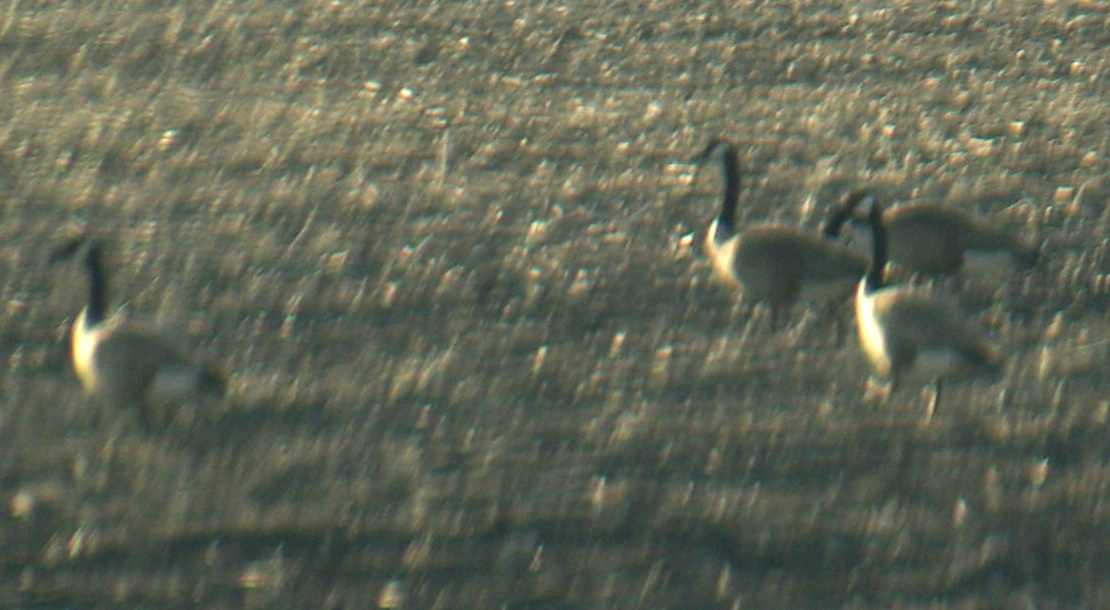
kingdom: Animalia
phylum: Chordata
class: Aves
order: Anseriformes
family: Anatidae
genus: Branta
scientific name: Branta canadensis
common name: Canada goose
